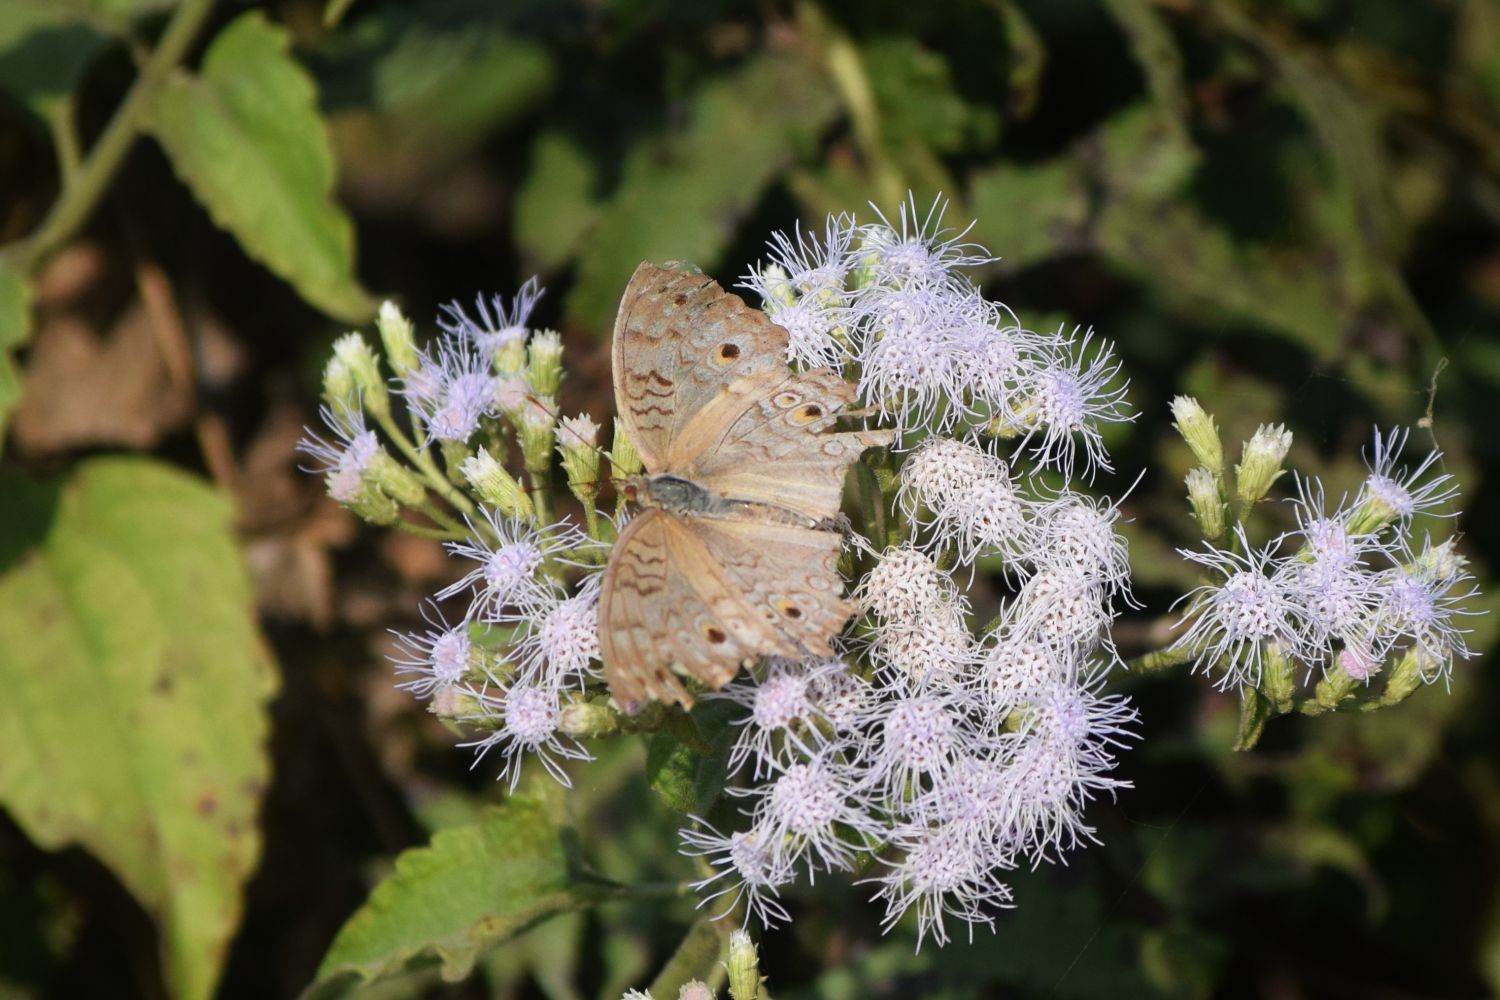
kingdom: Animalia
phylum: Arthropoda
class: Insecta
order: Lepidoptera
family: Nymphalidae
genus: Junonia
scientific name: Junonia atlites
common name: Grey pansy
